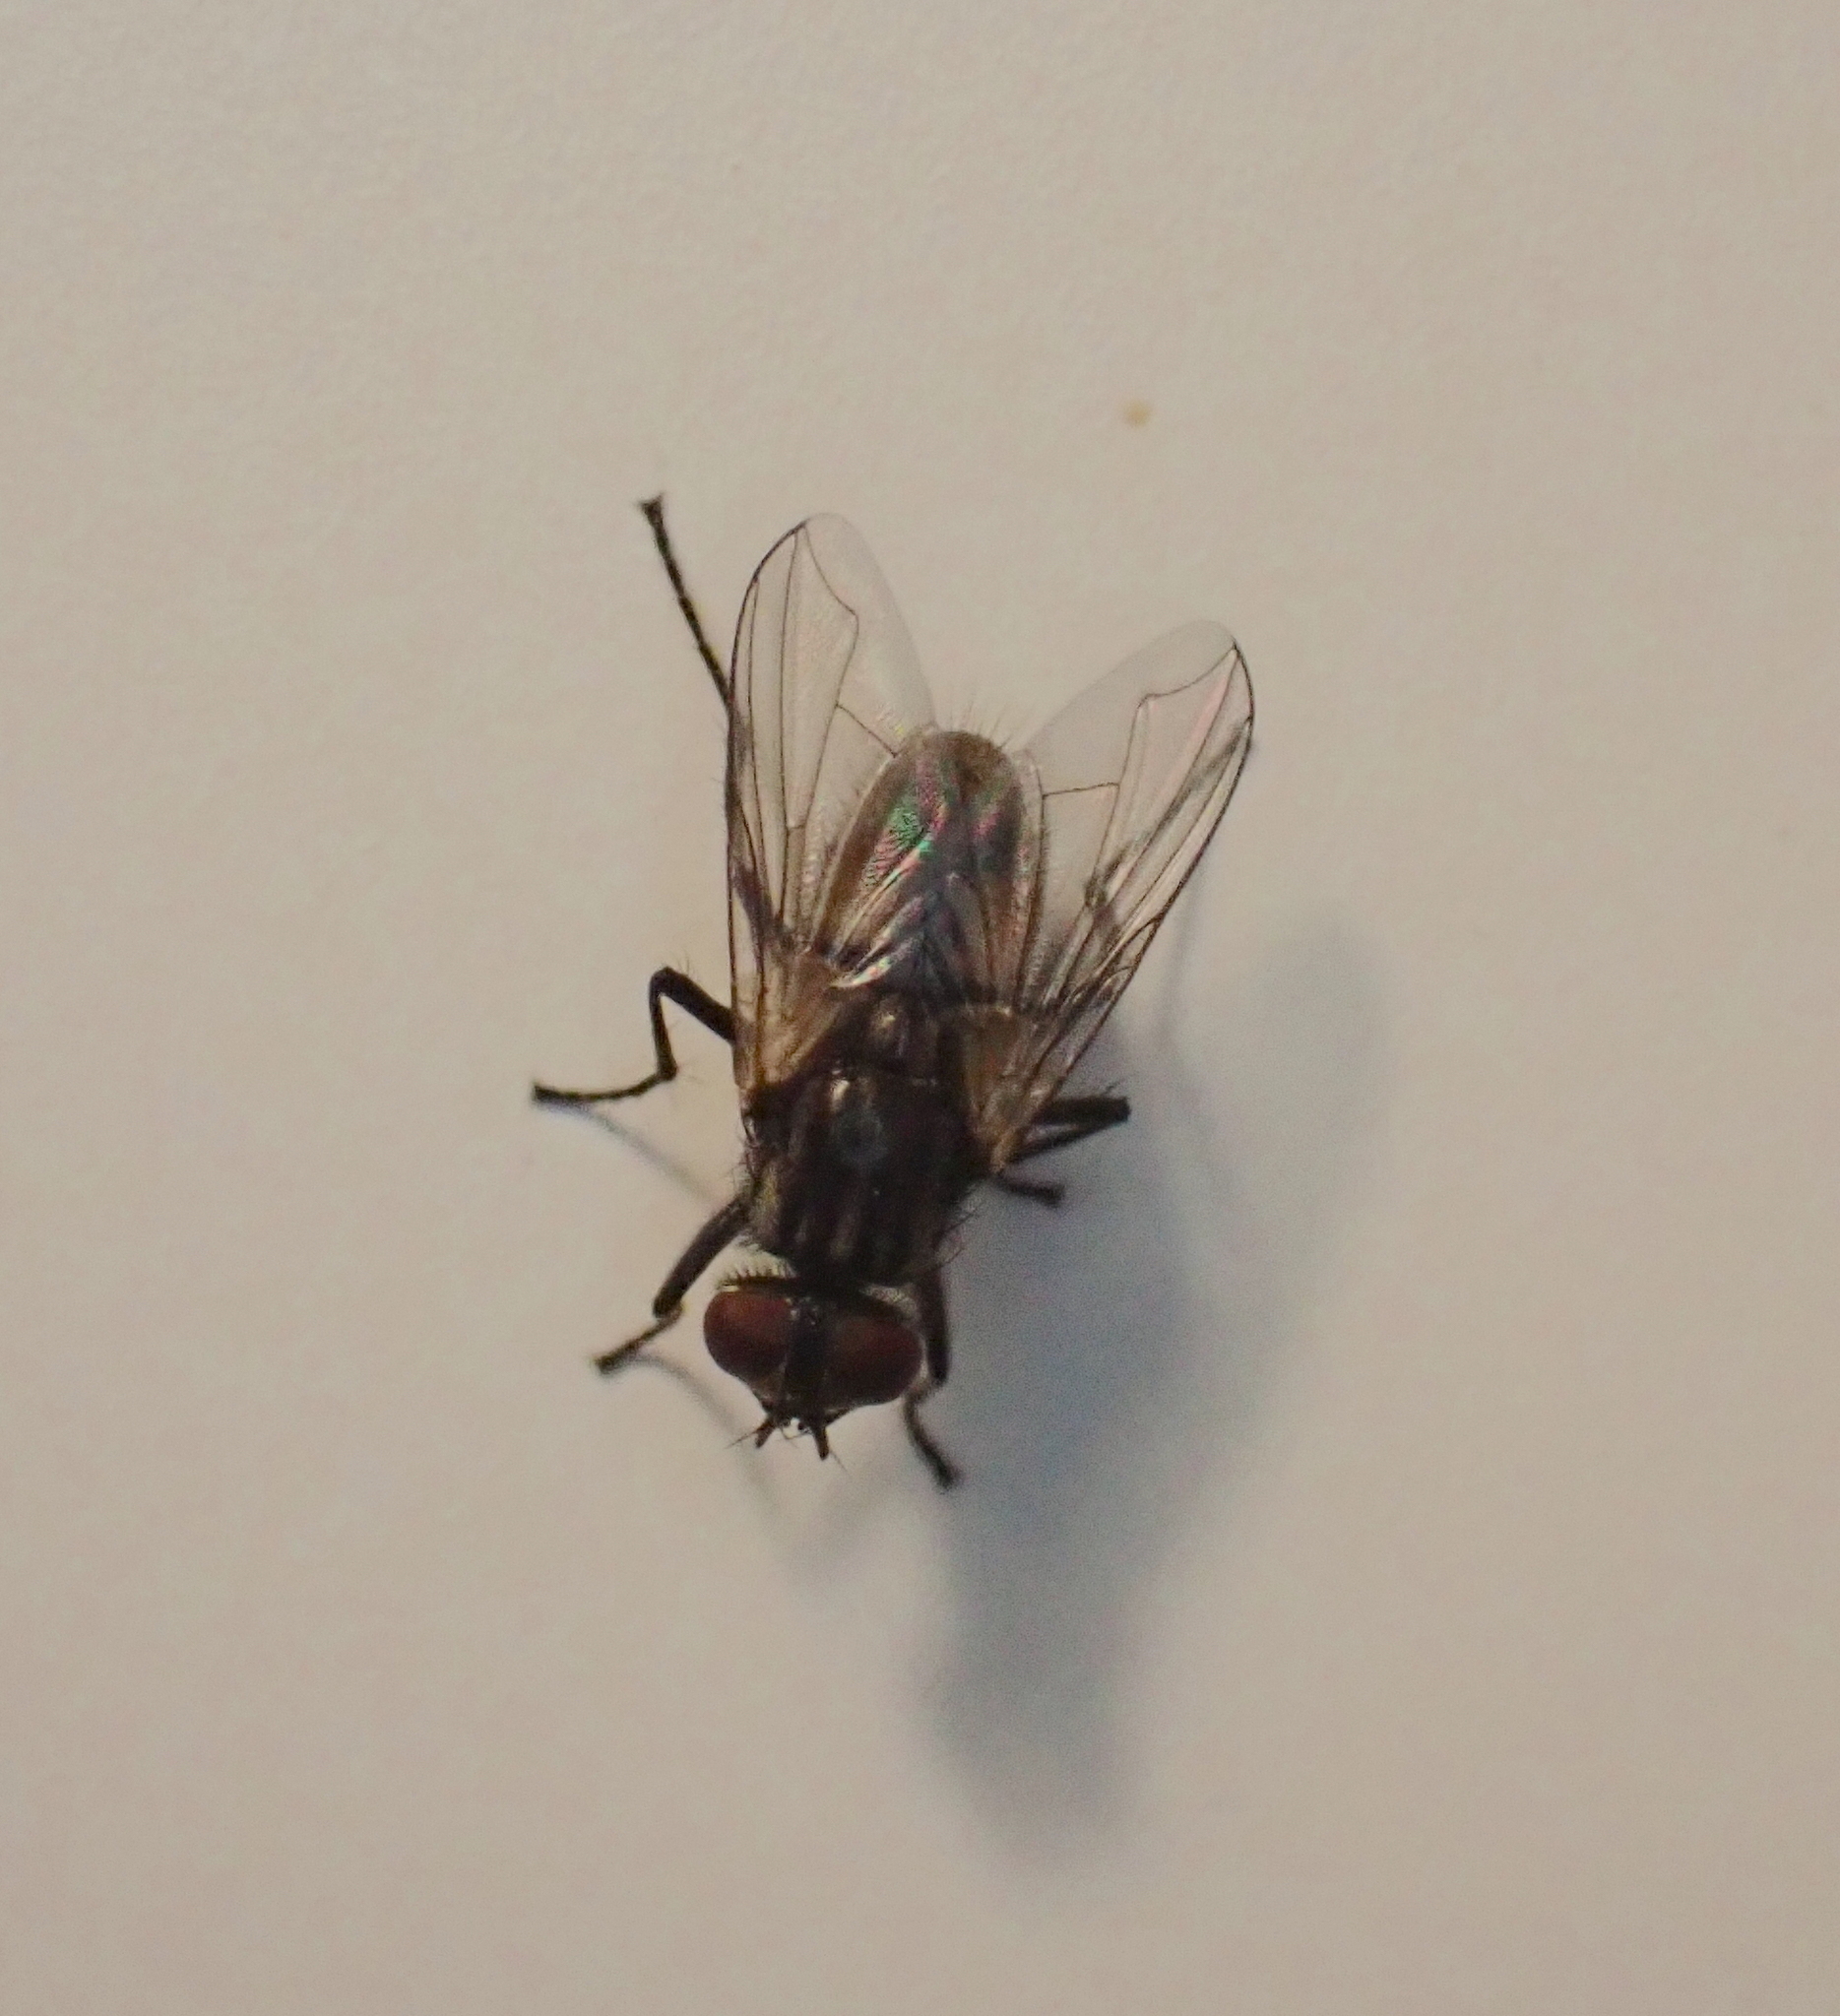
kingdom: Animalia
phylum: Arthropoda
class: Insecta
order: Diptera
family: Muscidae
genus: Musca
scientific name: Musca domestica
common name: House fly
